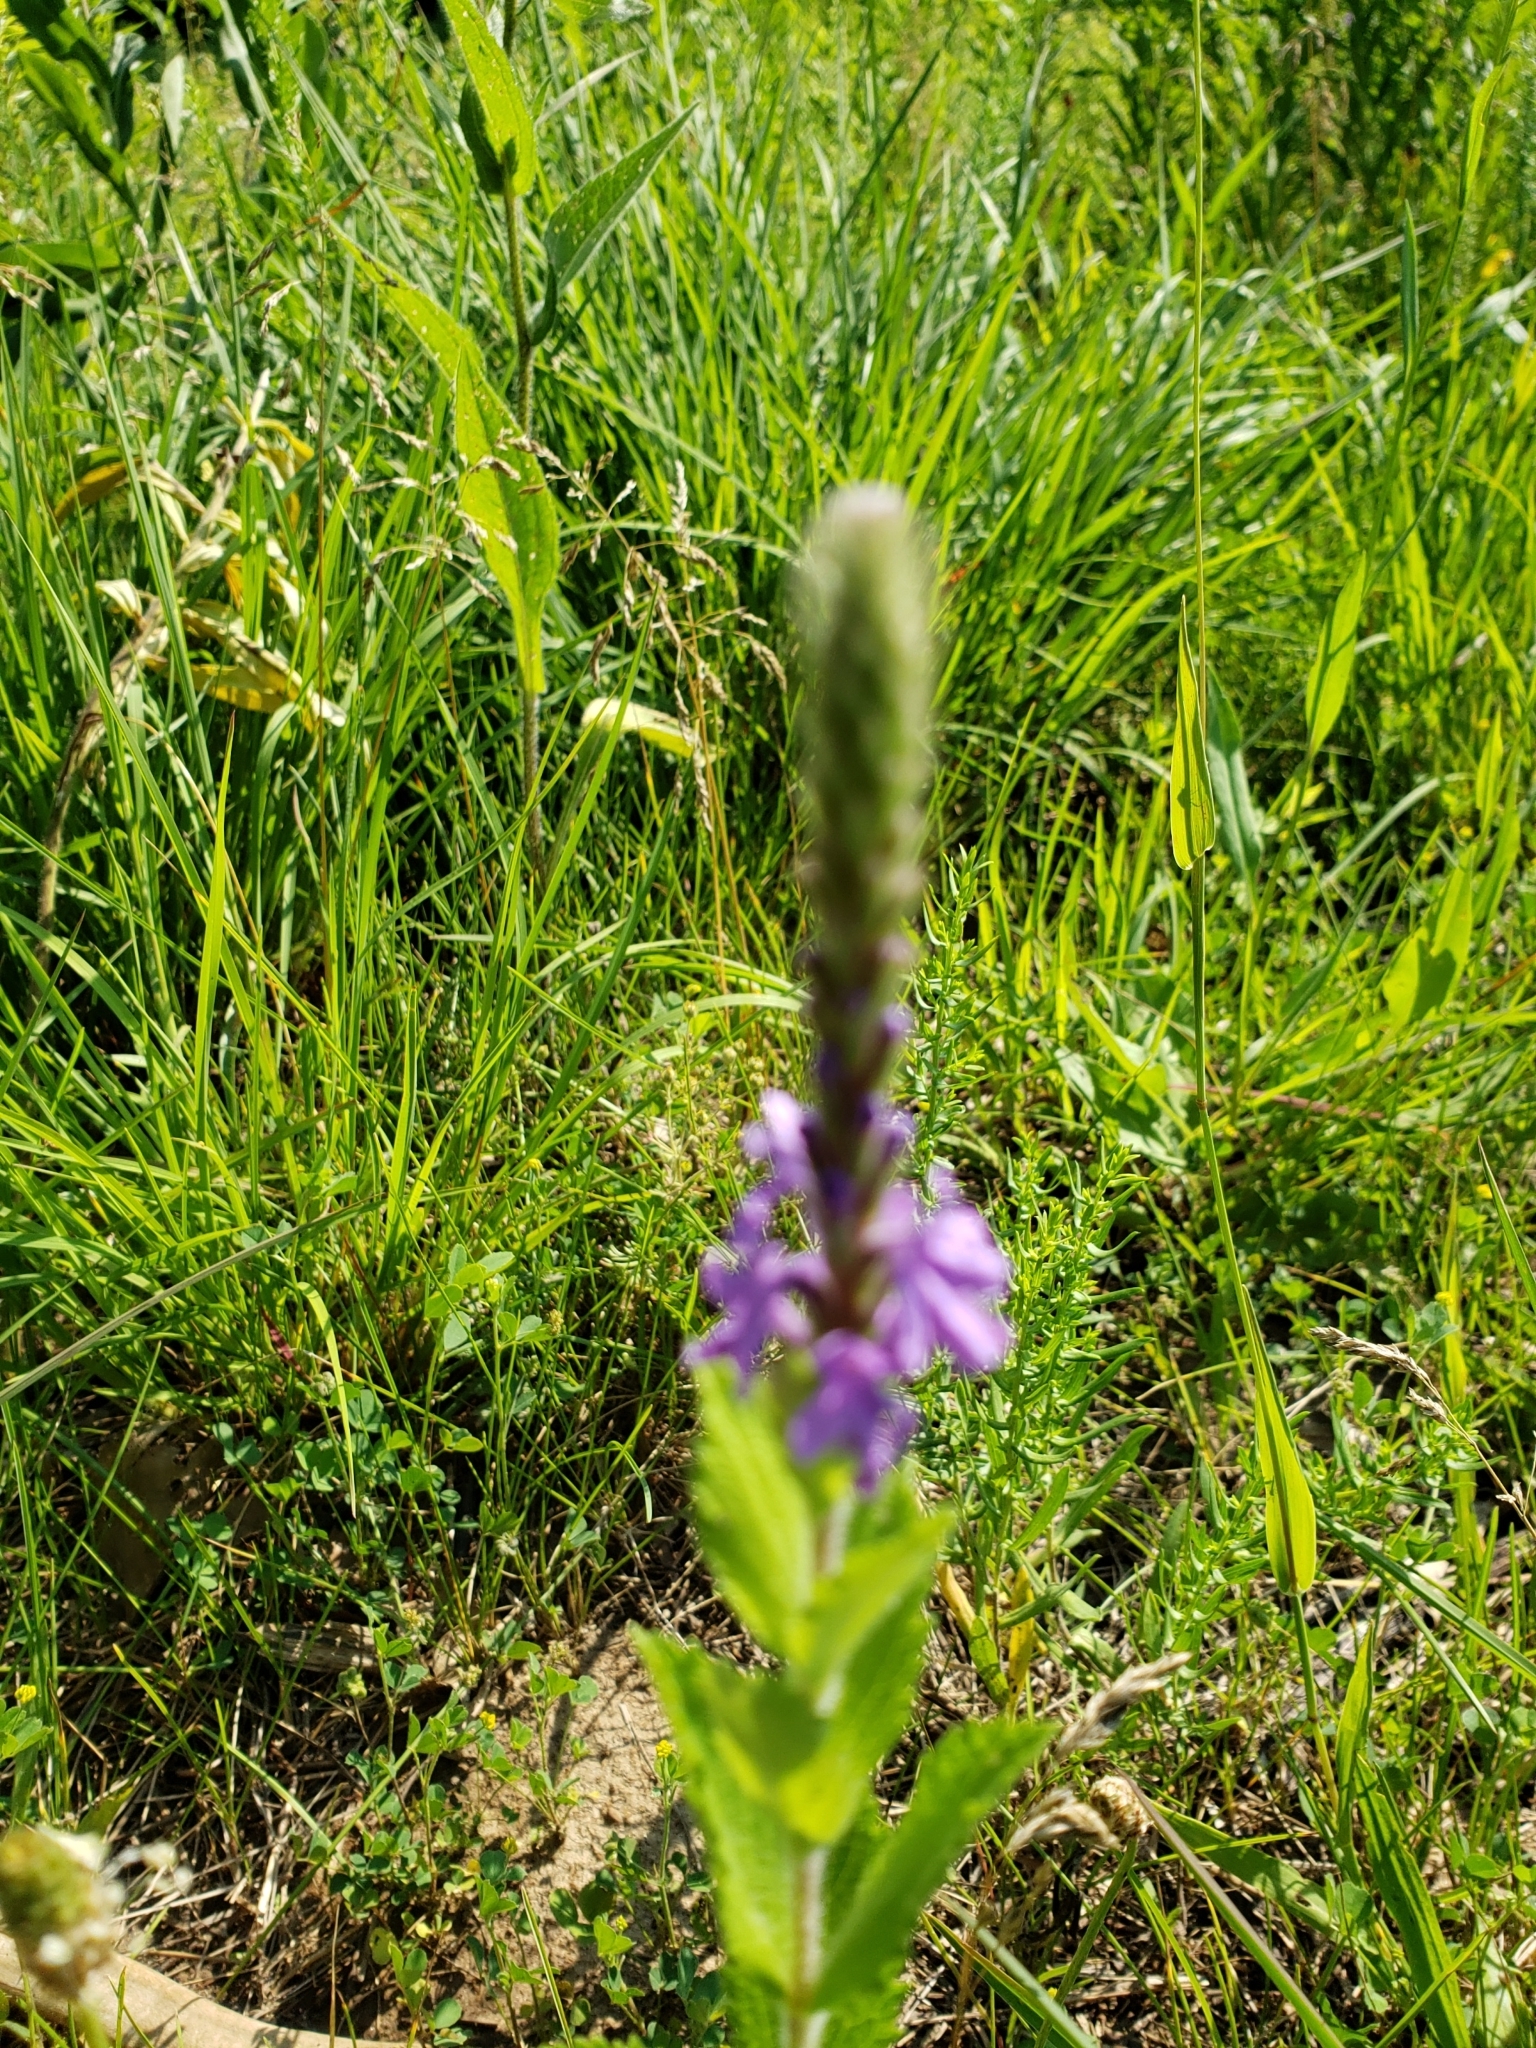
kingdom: Plantae
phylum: Tracheophyta
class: Magnoliopsida
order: Lamiales
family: Verbenaceae
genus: Verbena
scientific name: Verbena stricta
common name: Hoary vervain
